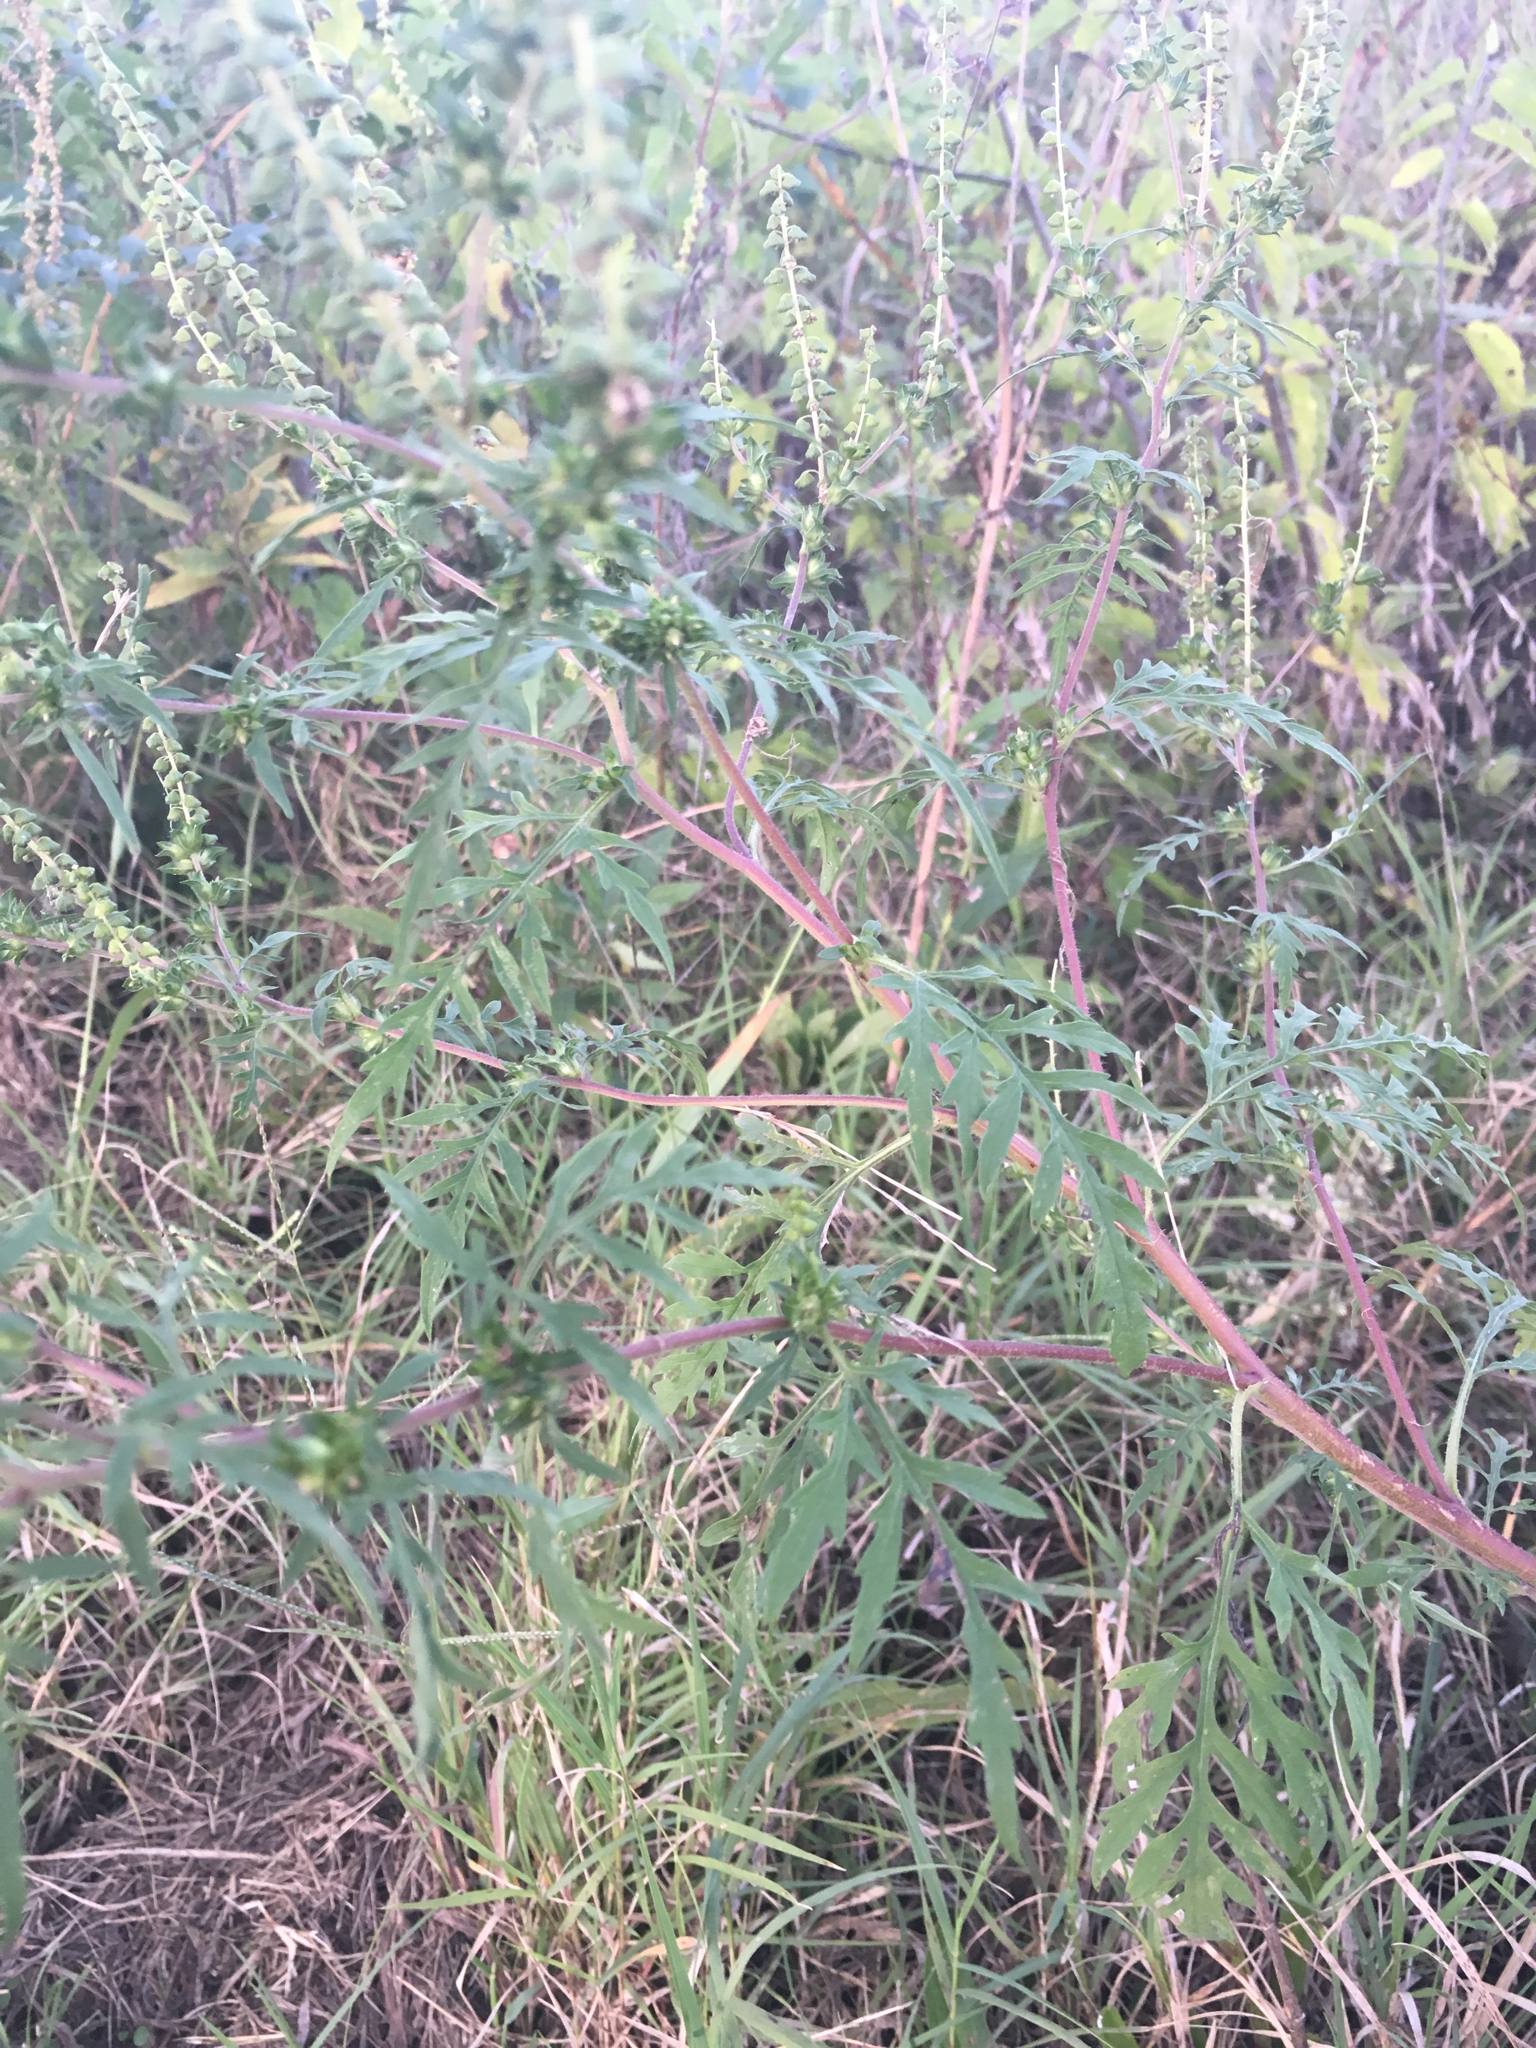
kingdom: Plantae
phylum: Tracheophyta
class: Magnoliopsida
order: Asterales
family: Asteraceae
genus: Ambrosia
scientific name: Ambrosia artemisiifolia
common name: Annual ragweed
